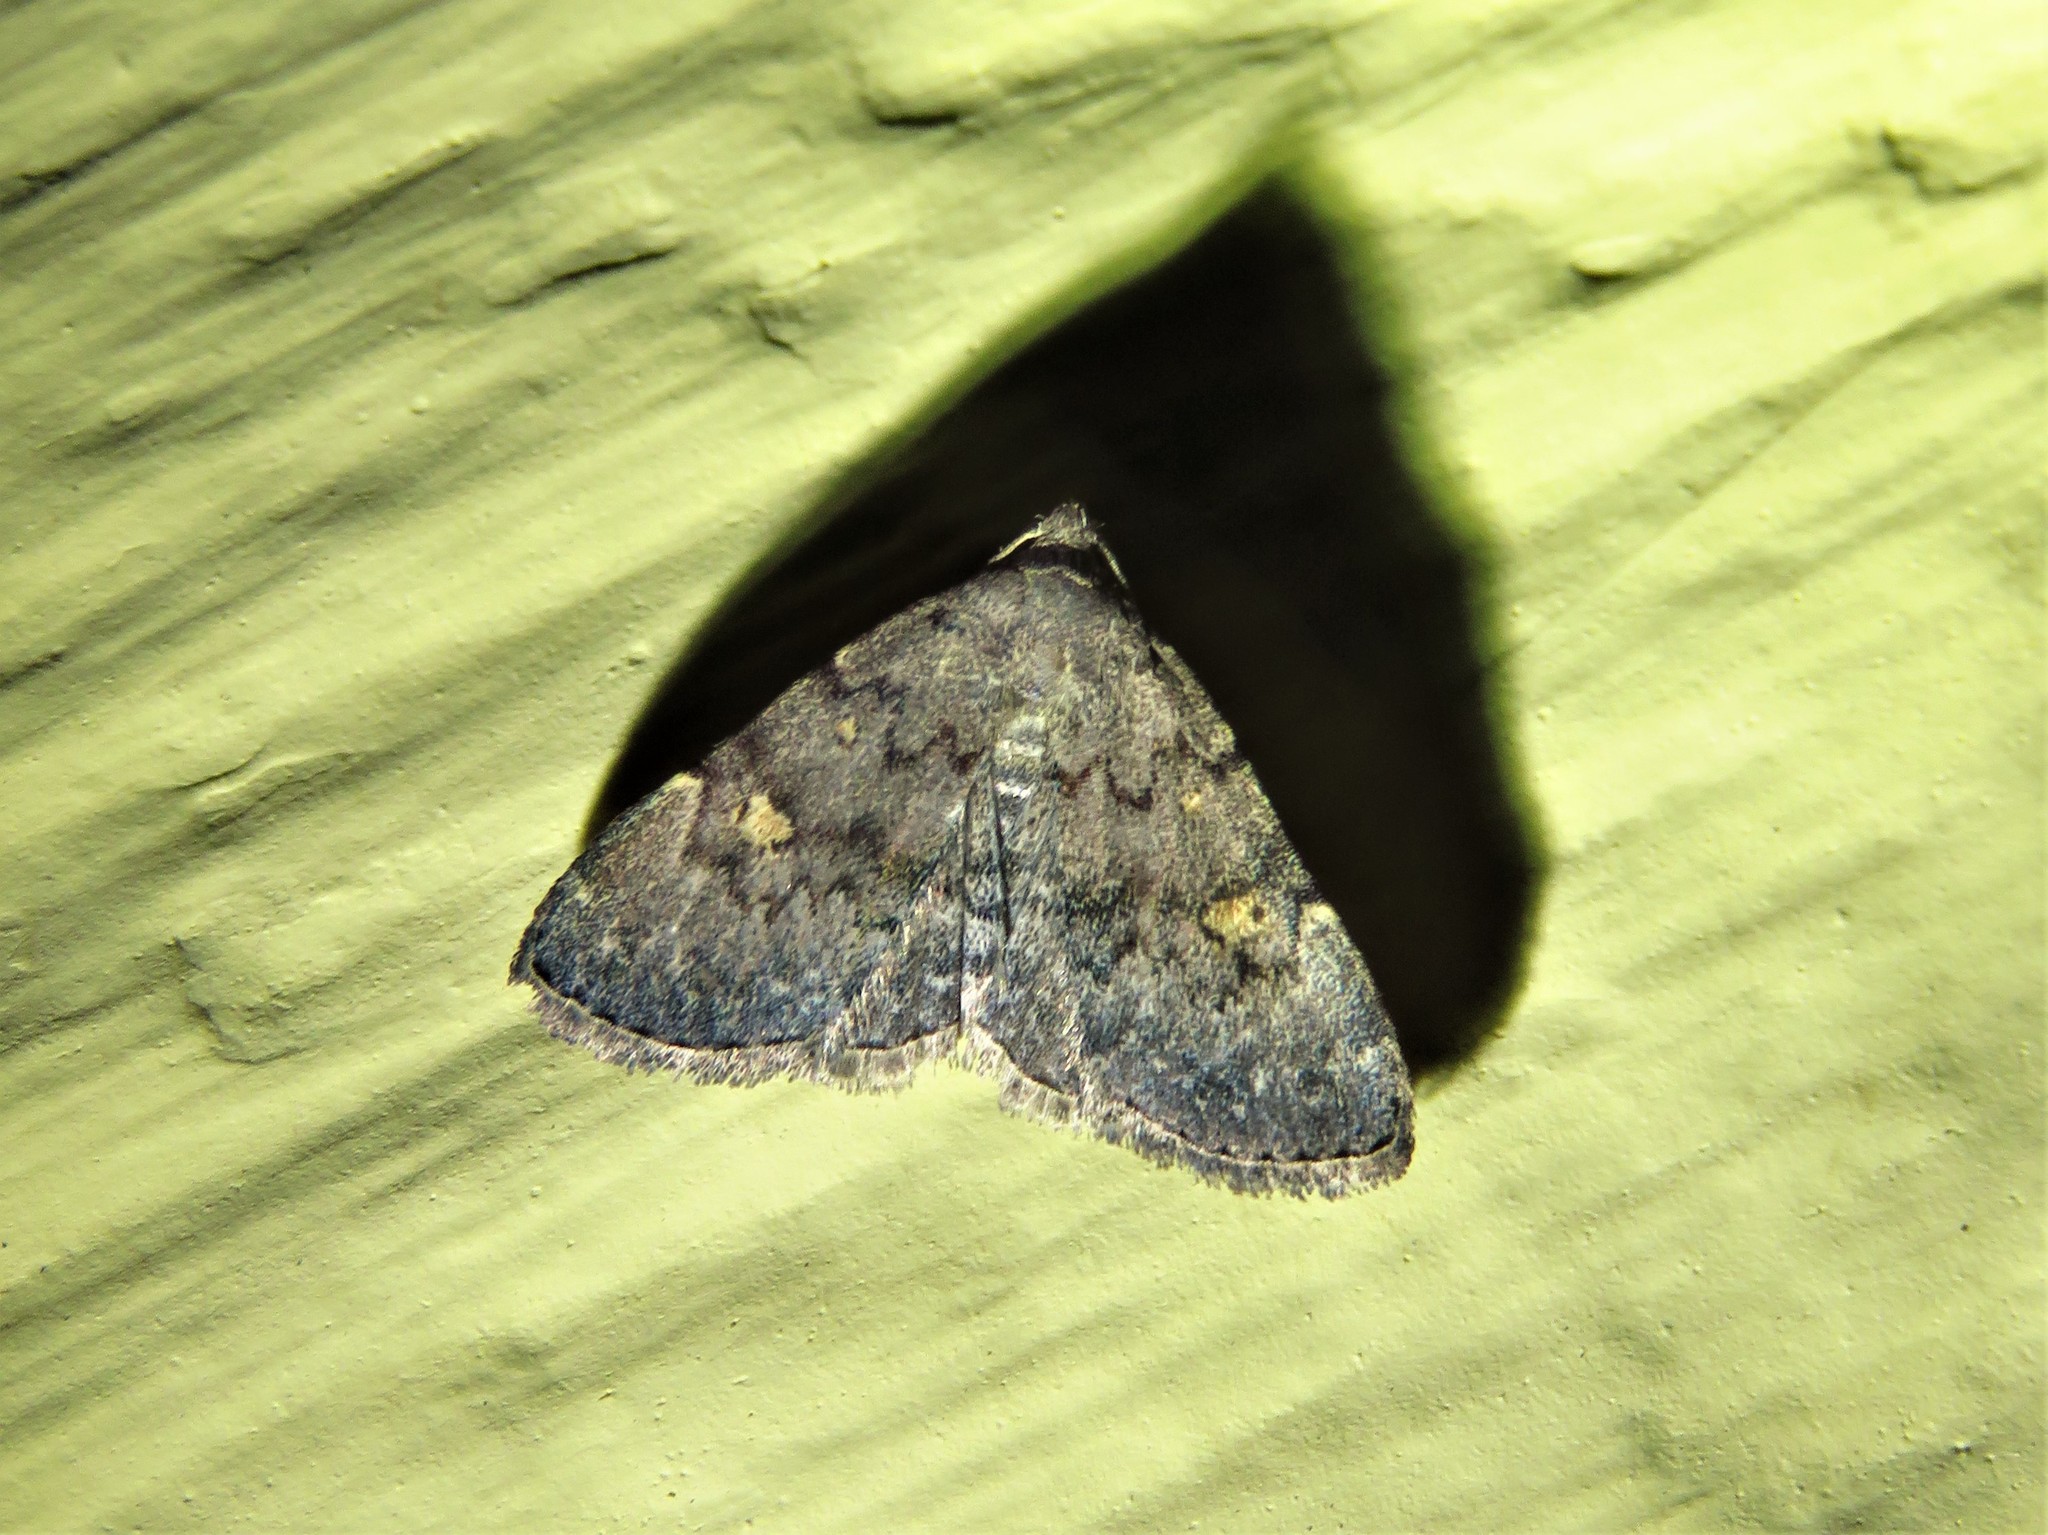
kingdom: Animalia
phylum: Arthropoda
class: Insecta
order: Lepidoptera
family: Erebidae
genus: Idia
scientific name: Idia aemula
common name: Common idia moth
